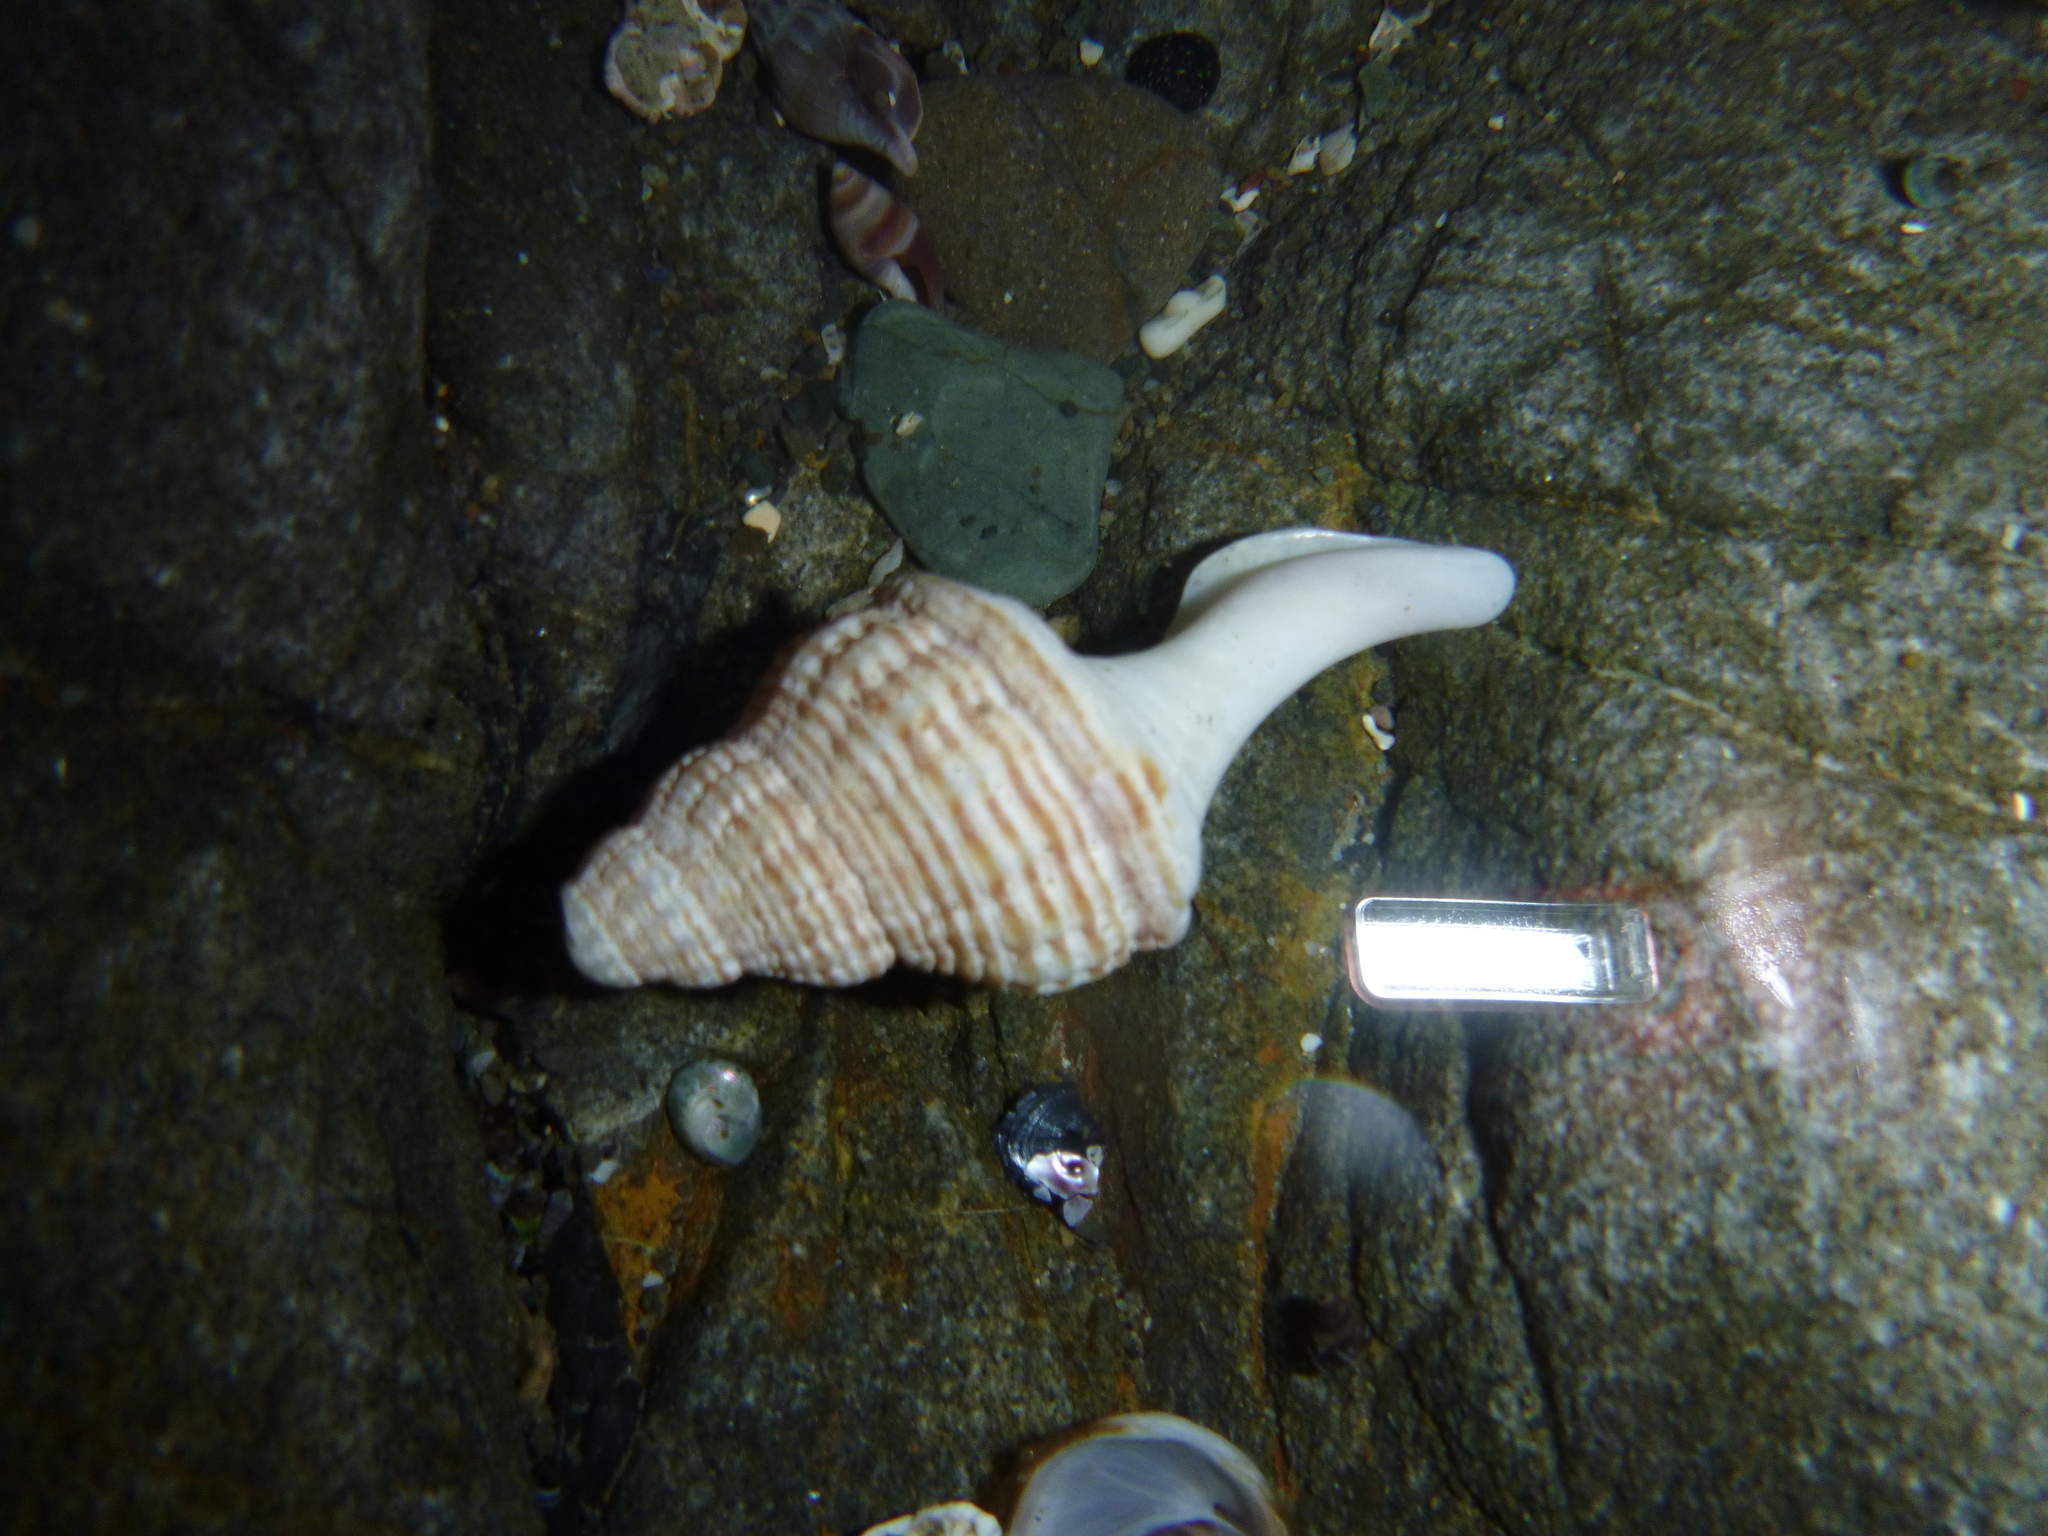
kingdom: Animalia
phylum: Mollusca
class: Gastropoda
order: Neogastropoda
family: Austrosiphonidae
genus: Penion
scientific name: Penion sulcatus
